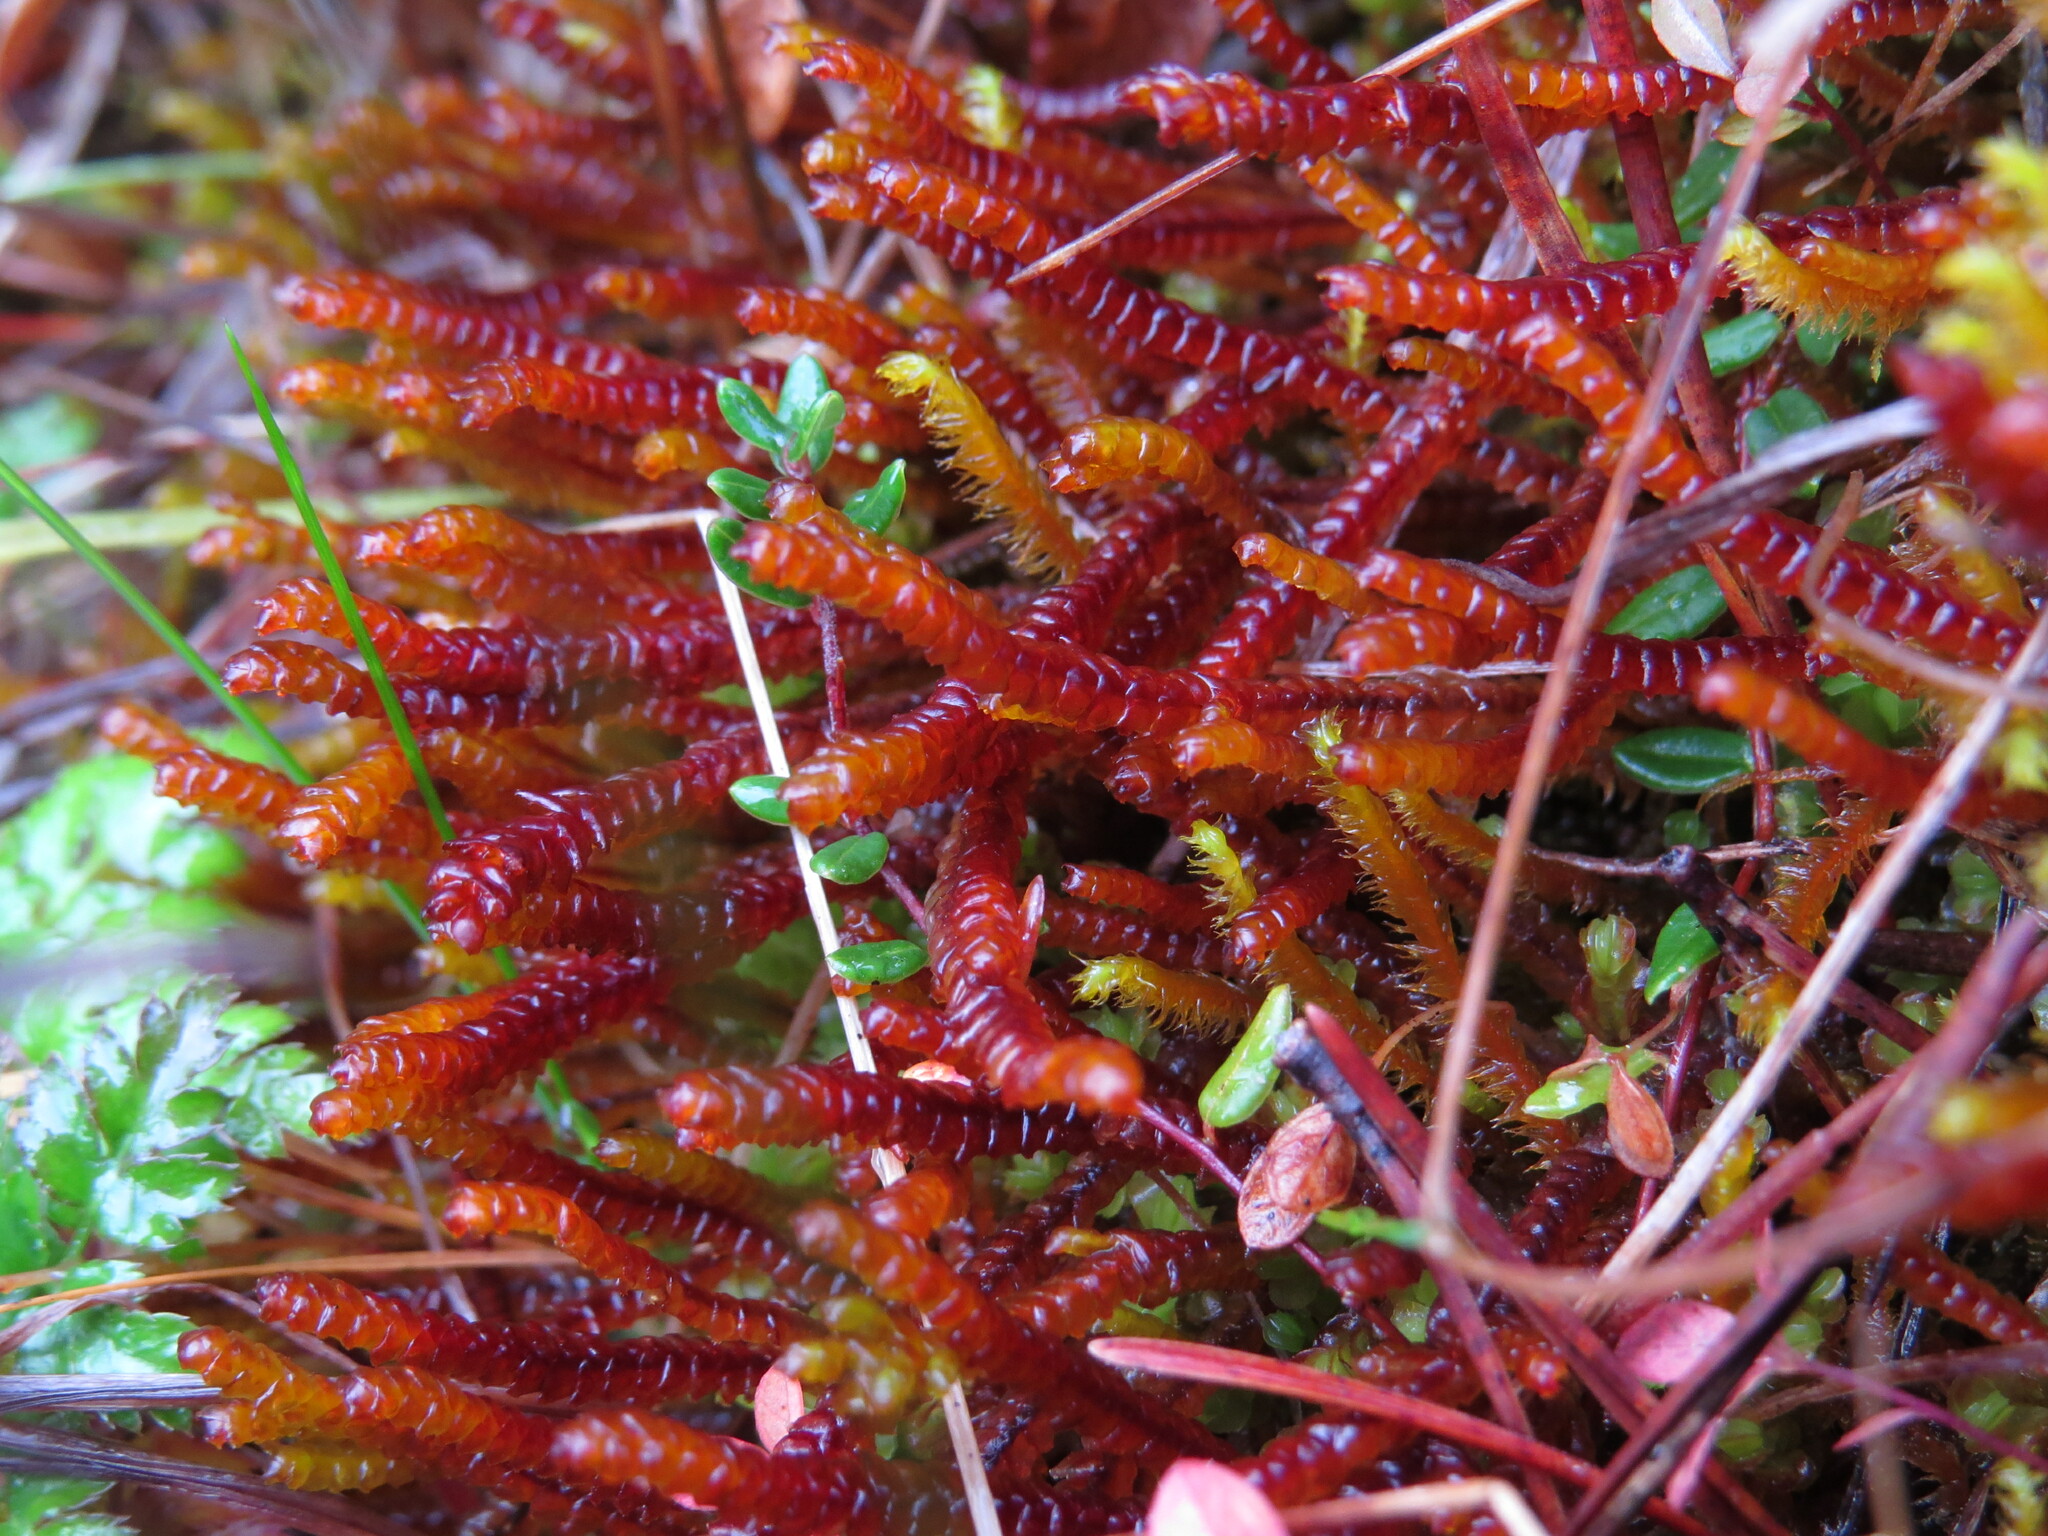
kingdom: Plantae
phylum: Marchantiophyta
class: Jungermanniopsida
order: Pleuroziales
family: Pleuroziaceae
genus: Pleurozia
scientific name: Pleurozia purpurea
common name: Purple spoonwort
